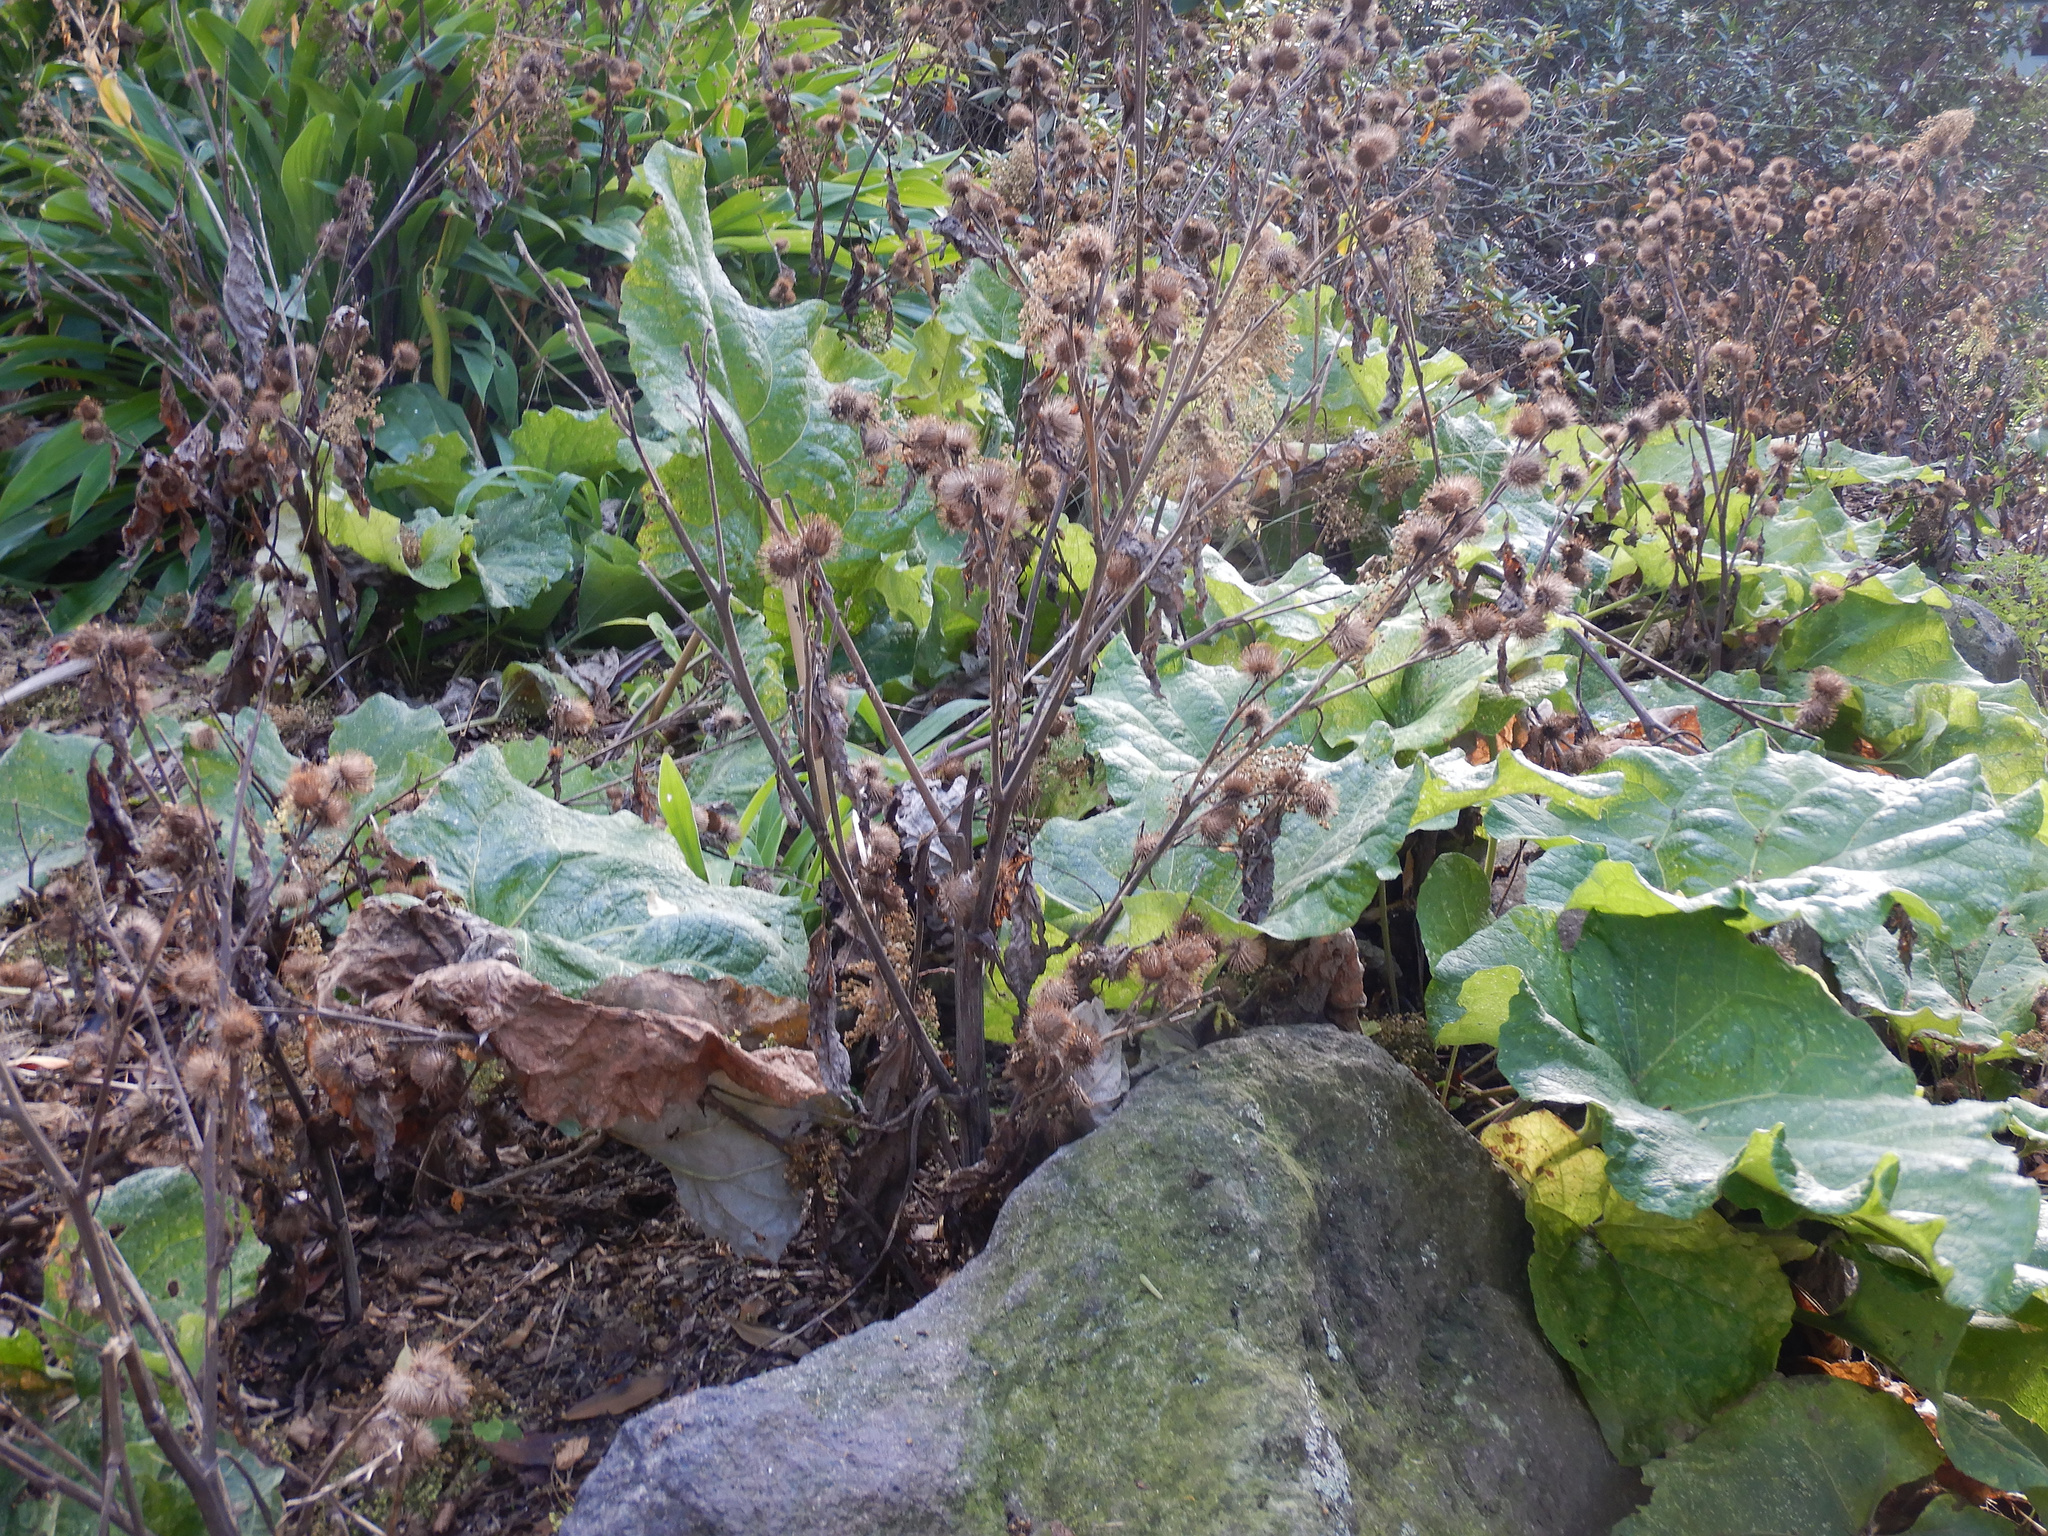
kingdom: Plantae
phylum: Tracheophyta
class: Magnoliopsida
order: Asterales
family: Asteraceae
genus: Arctium
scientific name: Arctium minus
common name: Lesser burdock
